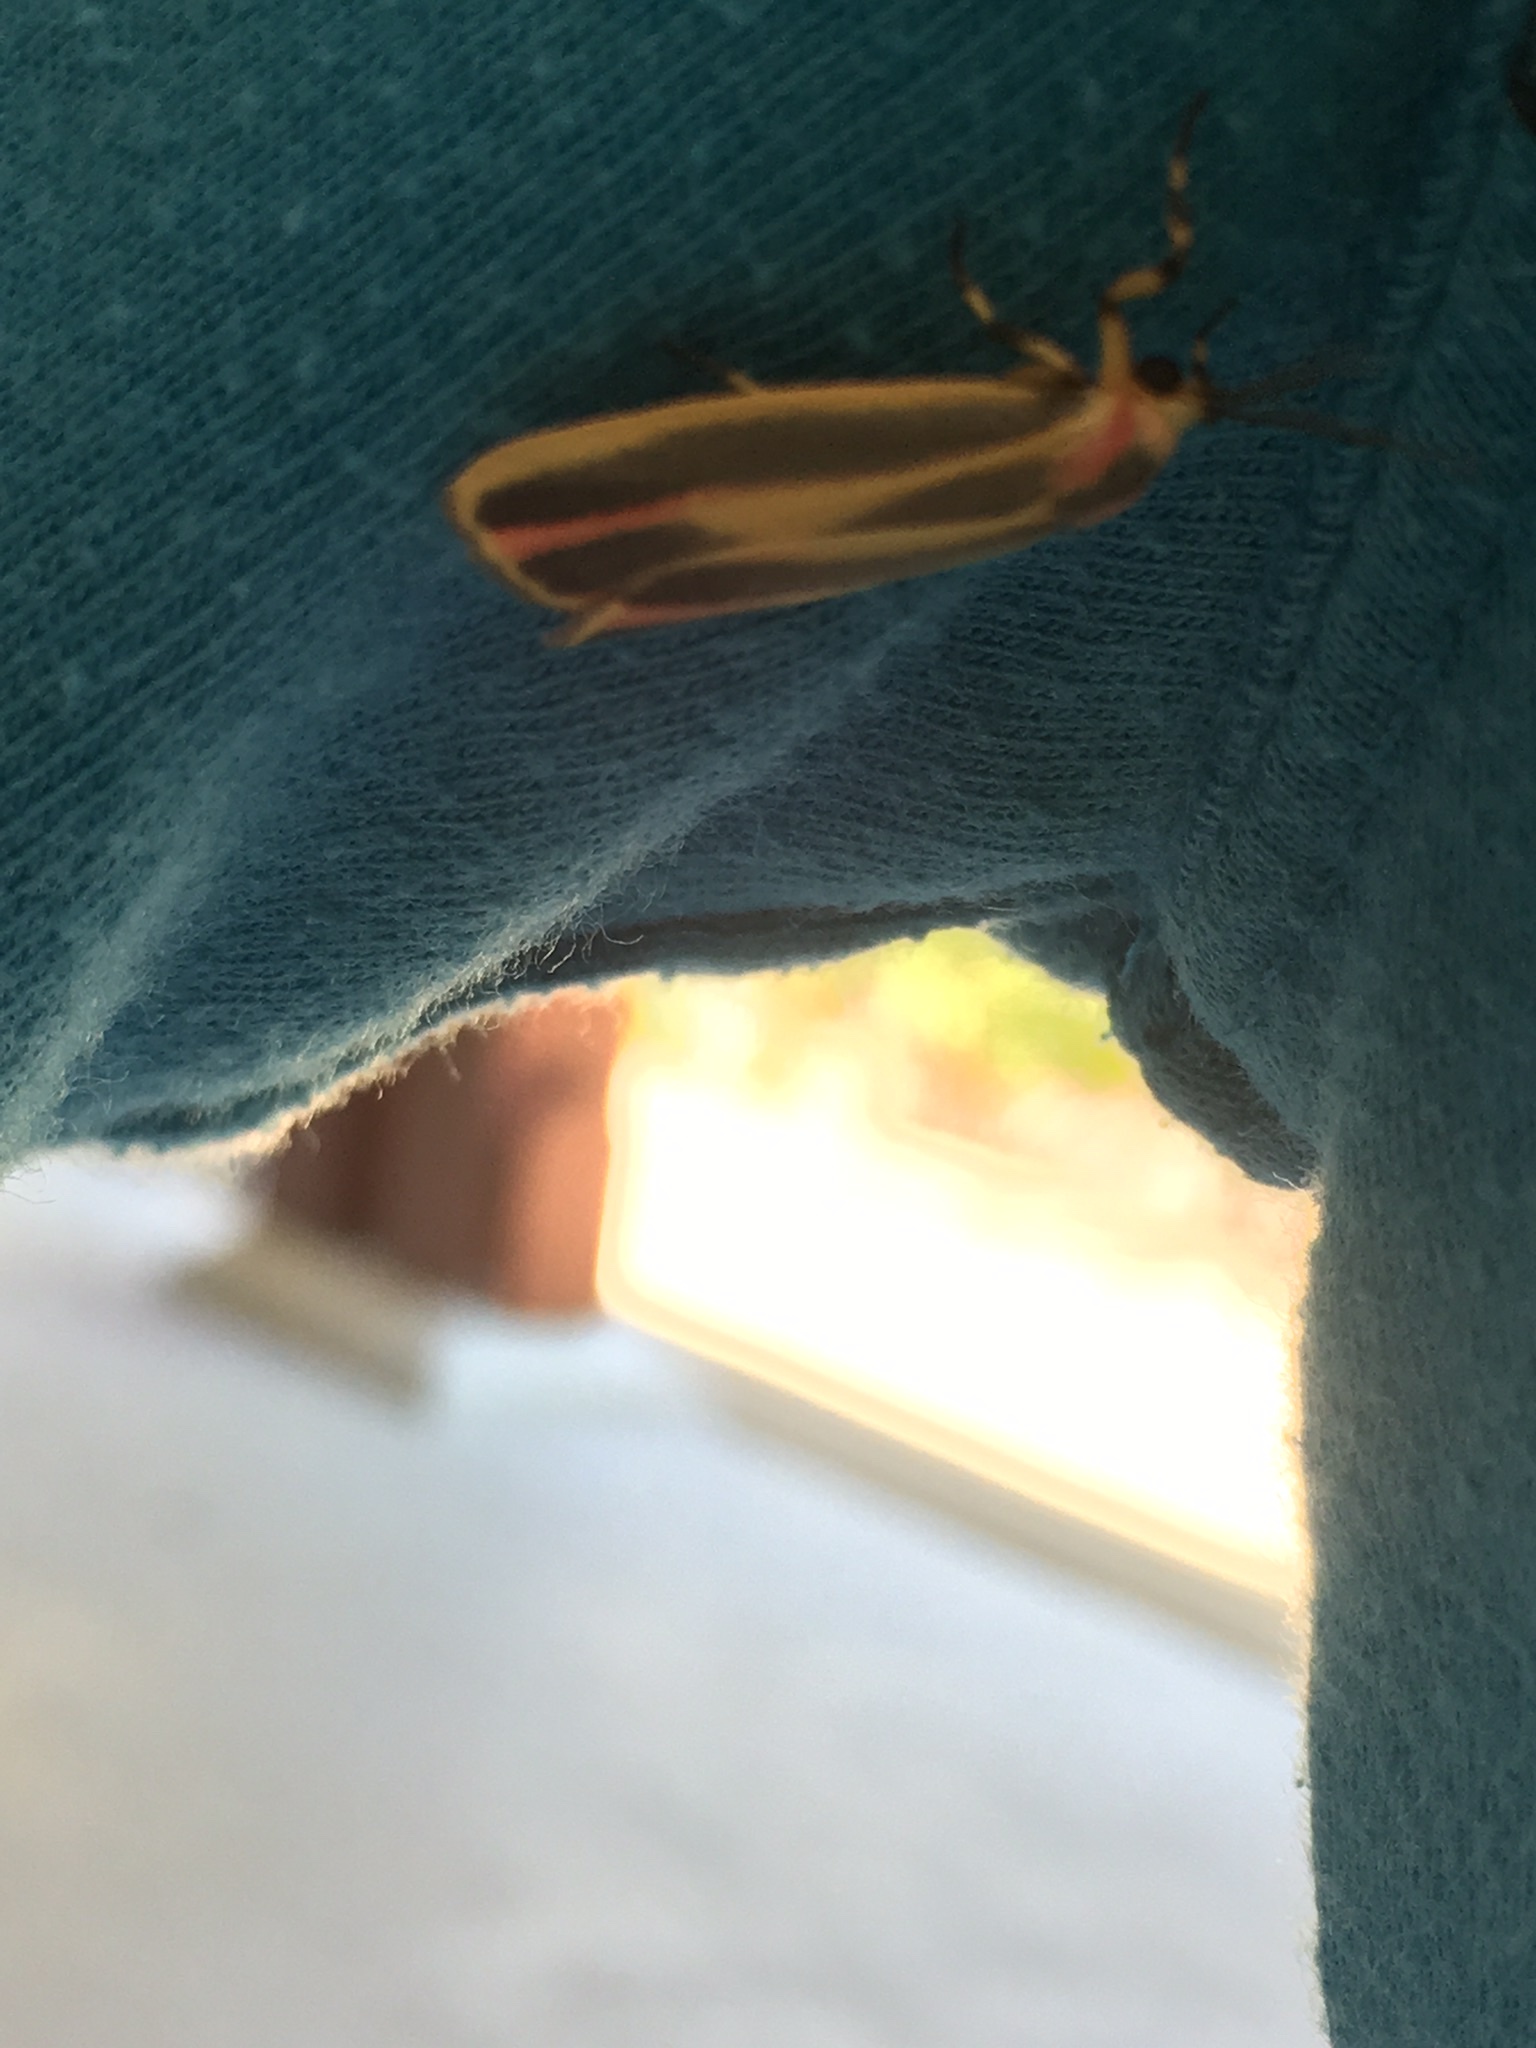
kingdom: Animalia
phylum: Arthropoda
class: Insecta
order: Lepidoptera
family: Erebidae
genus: Hypoprepia
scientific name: Hypoprepia fucosa
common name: Painted lichen moth
